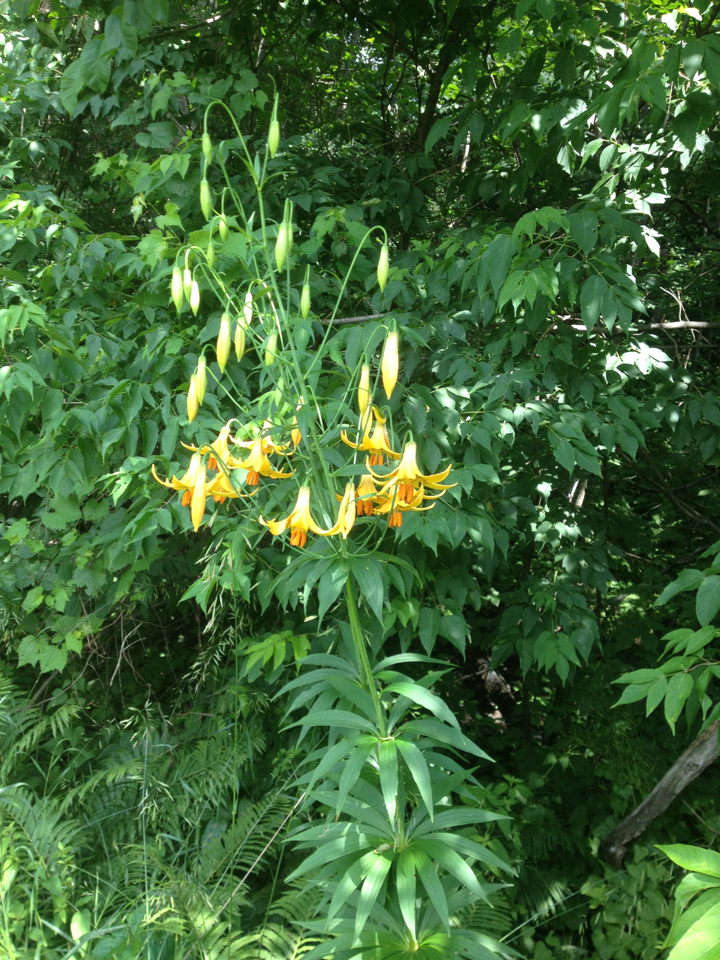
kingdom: Plantae
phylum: Tracheophyta
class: Liliopsida
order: Liliales
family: Liliaceae
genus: Lilium
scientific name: Lilium canadense
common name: Canada lily
